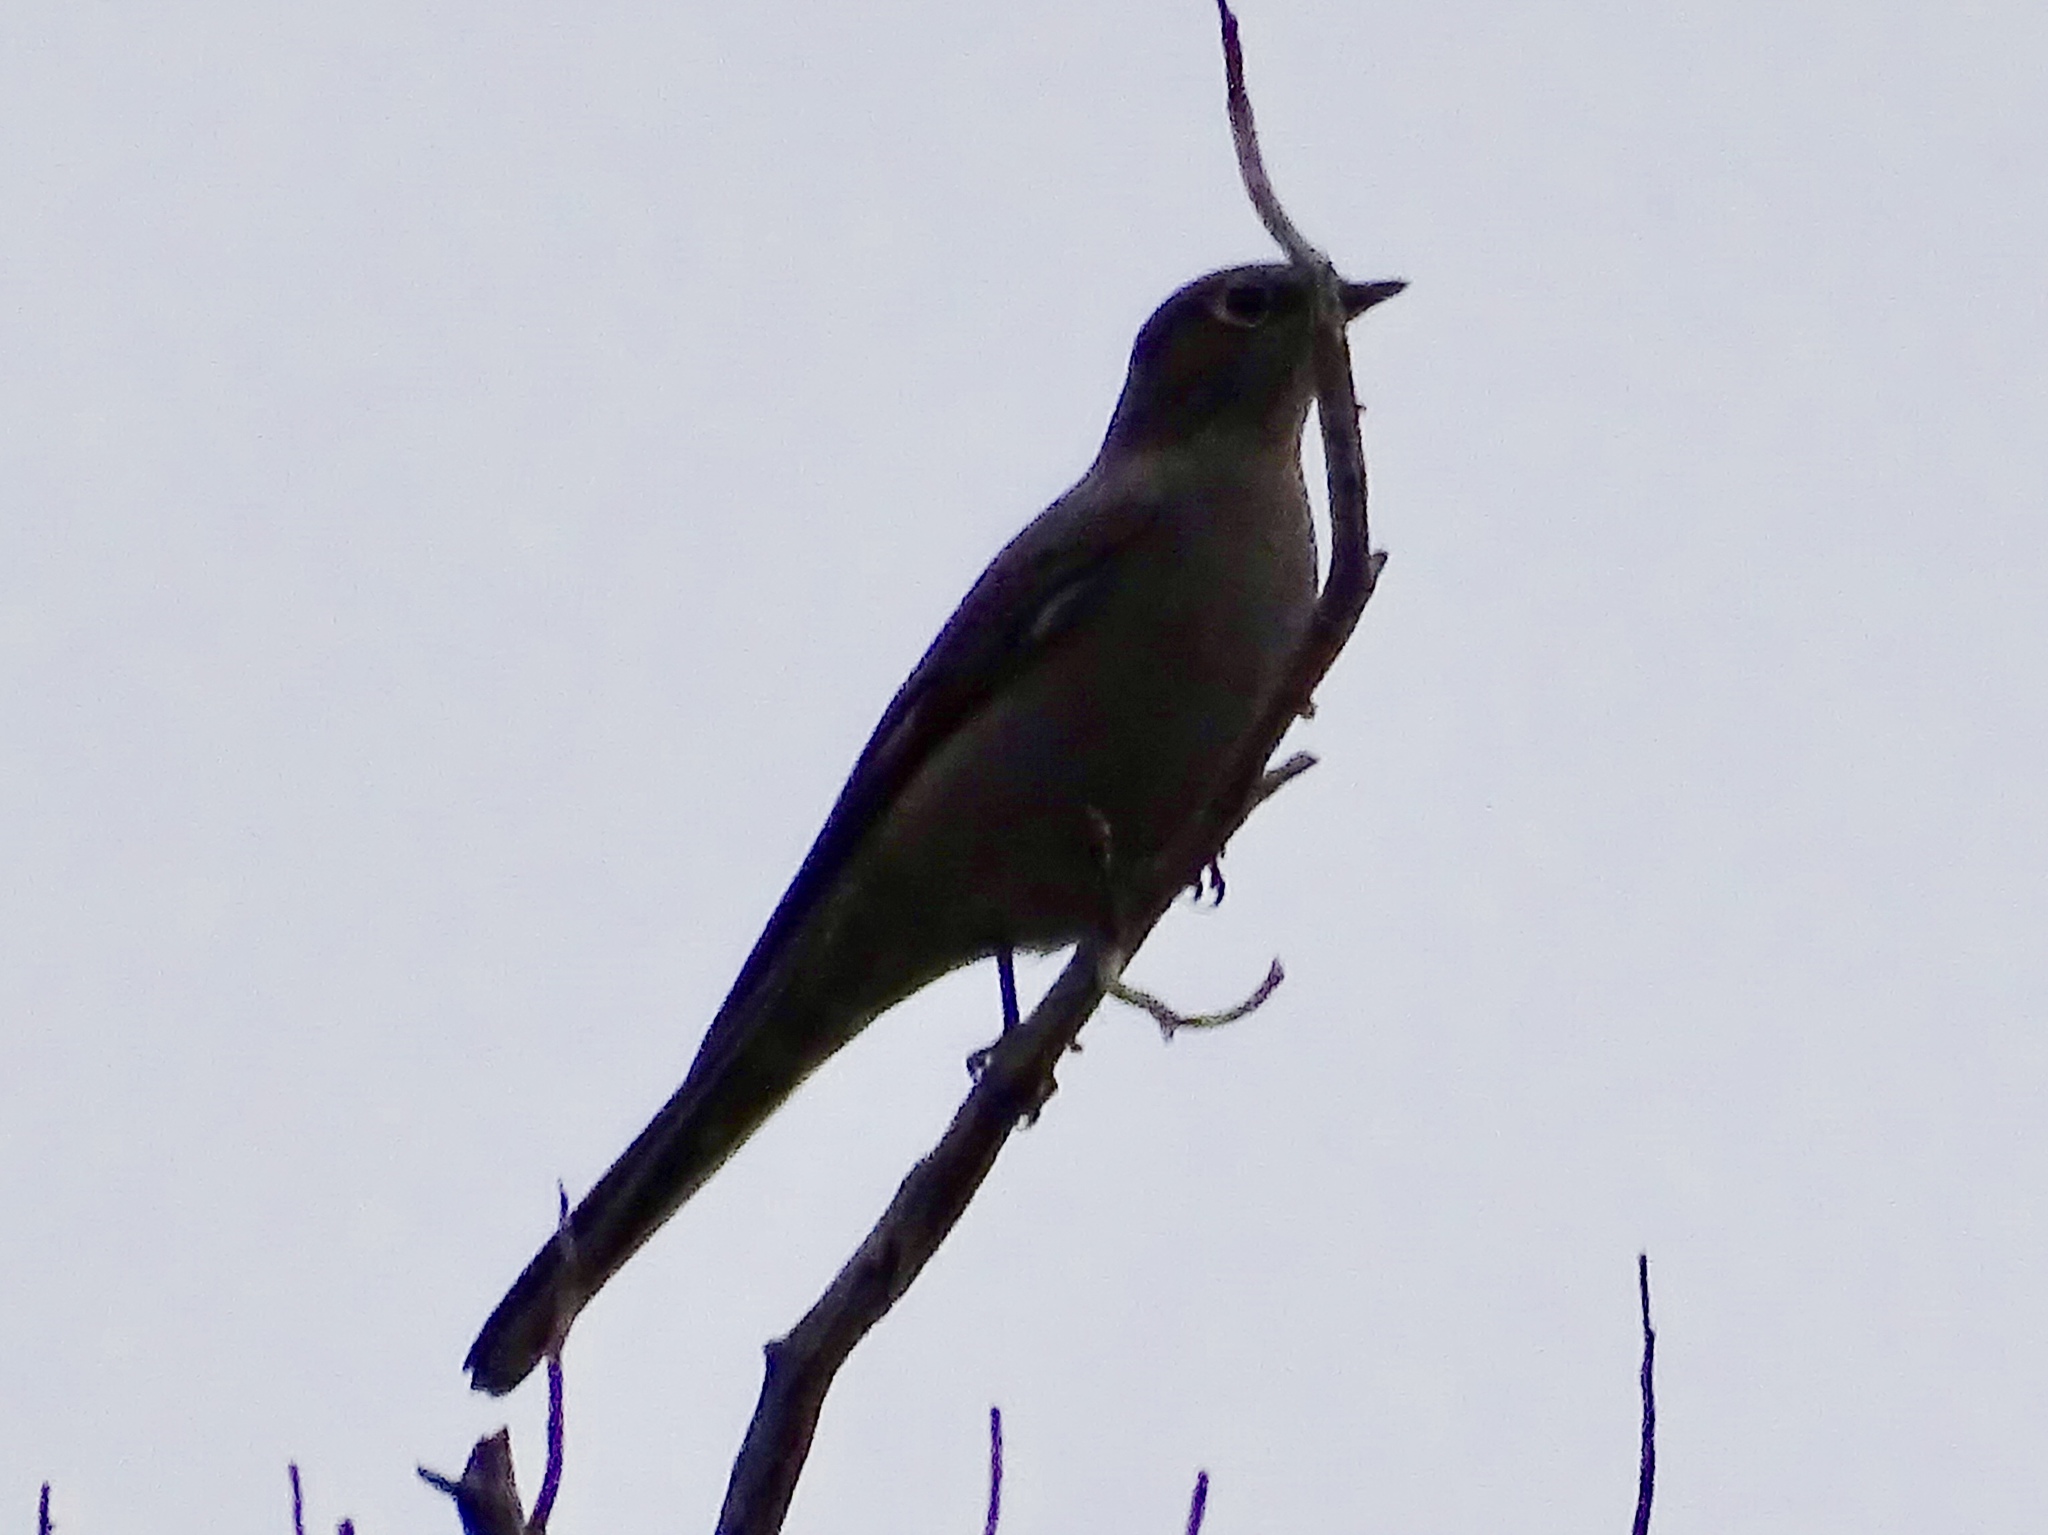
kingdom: Animalia
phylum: Chordata
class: Aves
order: Passeriformes
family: Turdidae
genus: Myadestes
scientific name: Myadestes townsendi
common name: Townsend's solitaire
